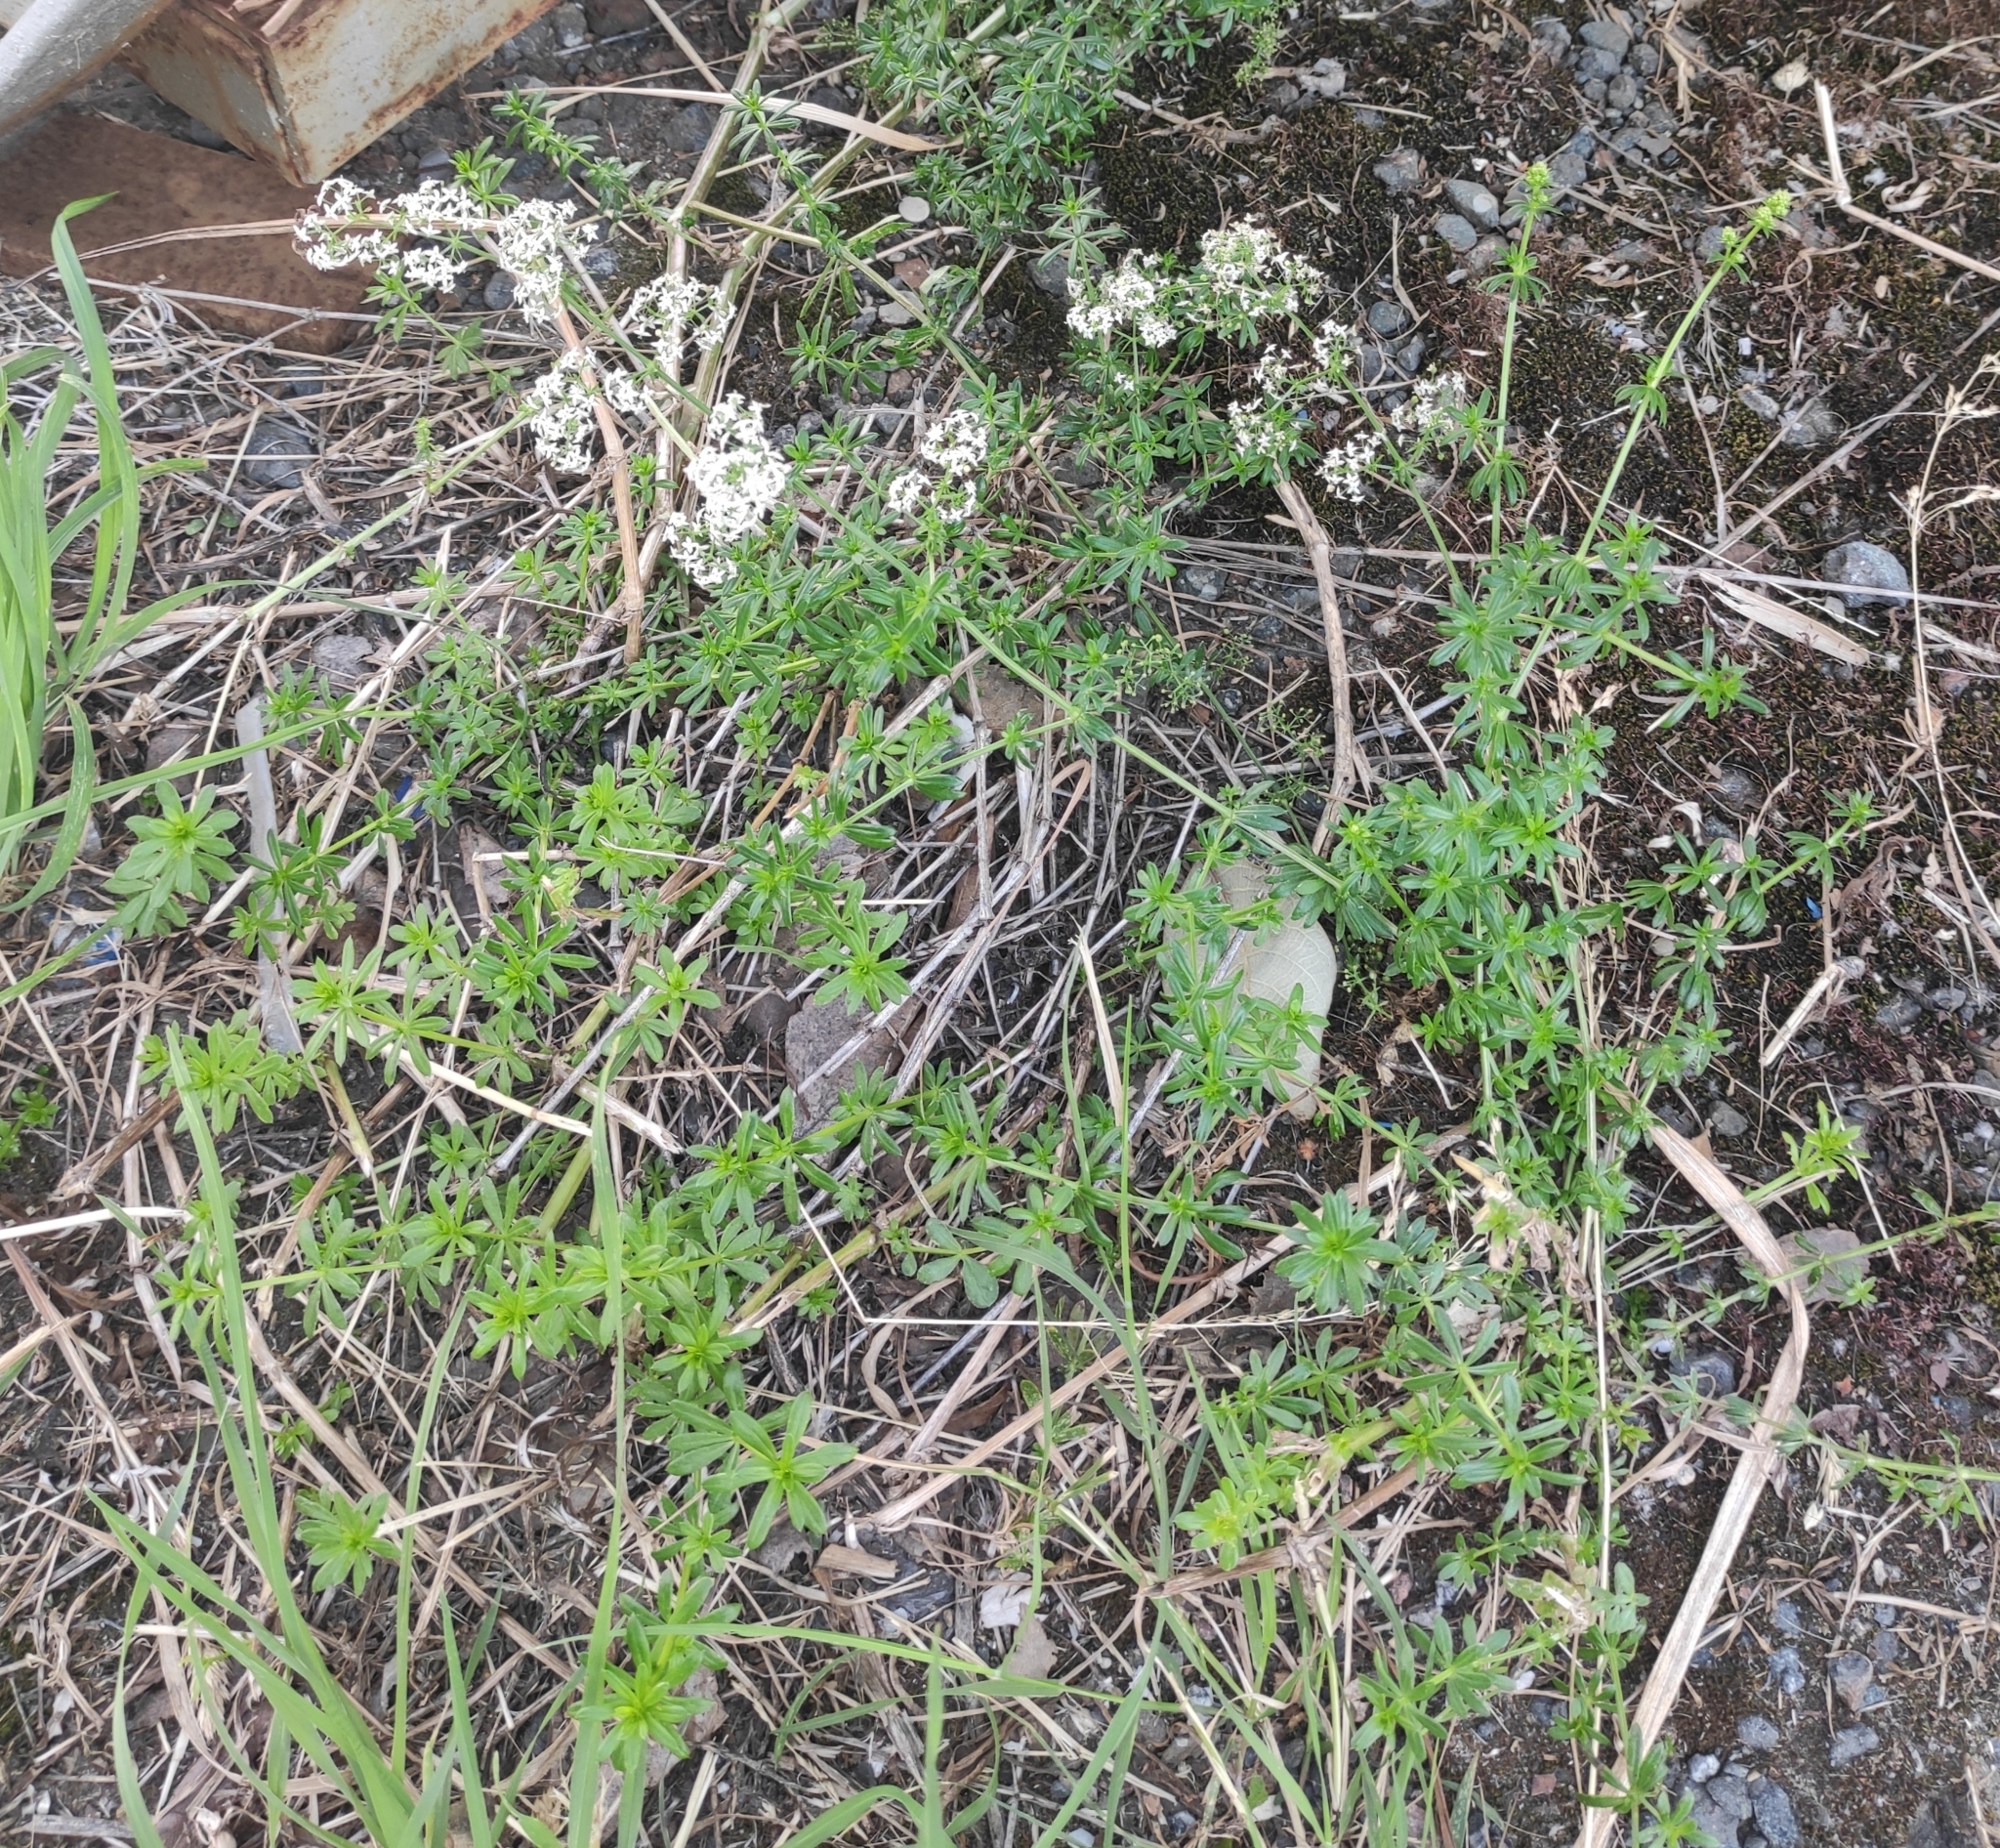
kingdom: Plantae
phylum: Tracheophyta
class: Magnoliopsida
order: Gentianales
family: Rubiaceae
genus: Galium
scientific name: Galium mollugo
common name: Hedge bedstraw
